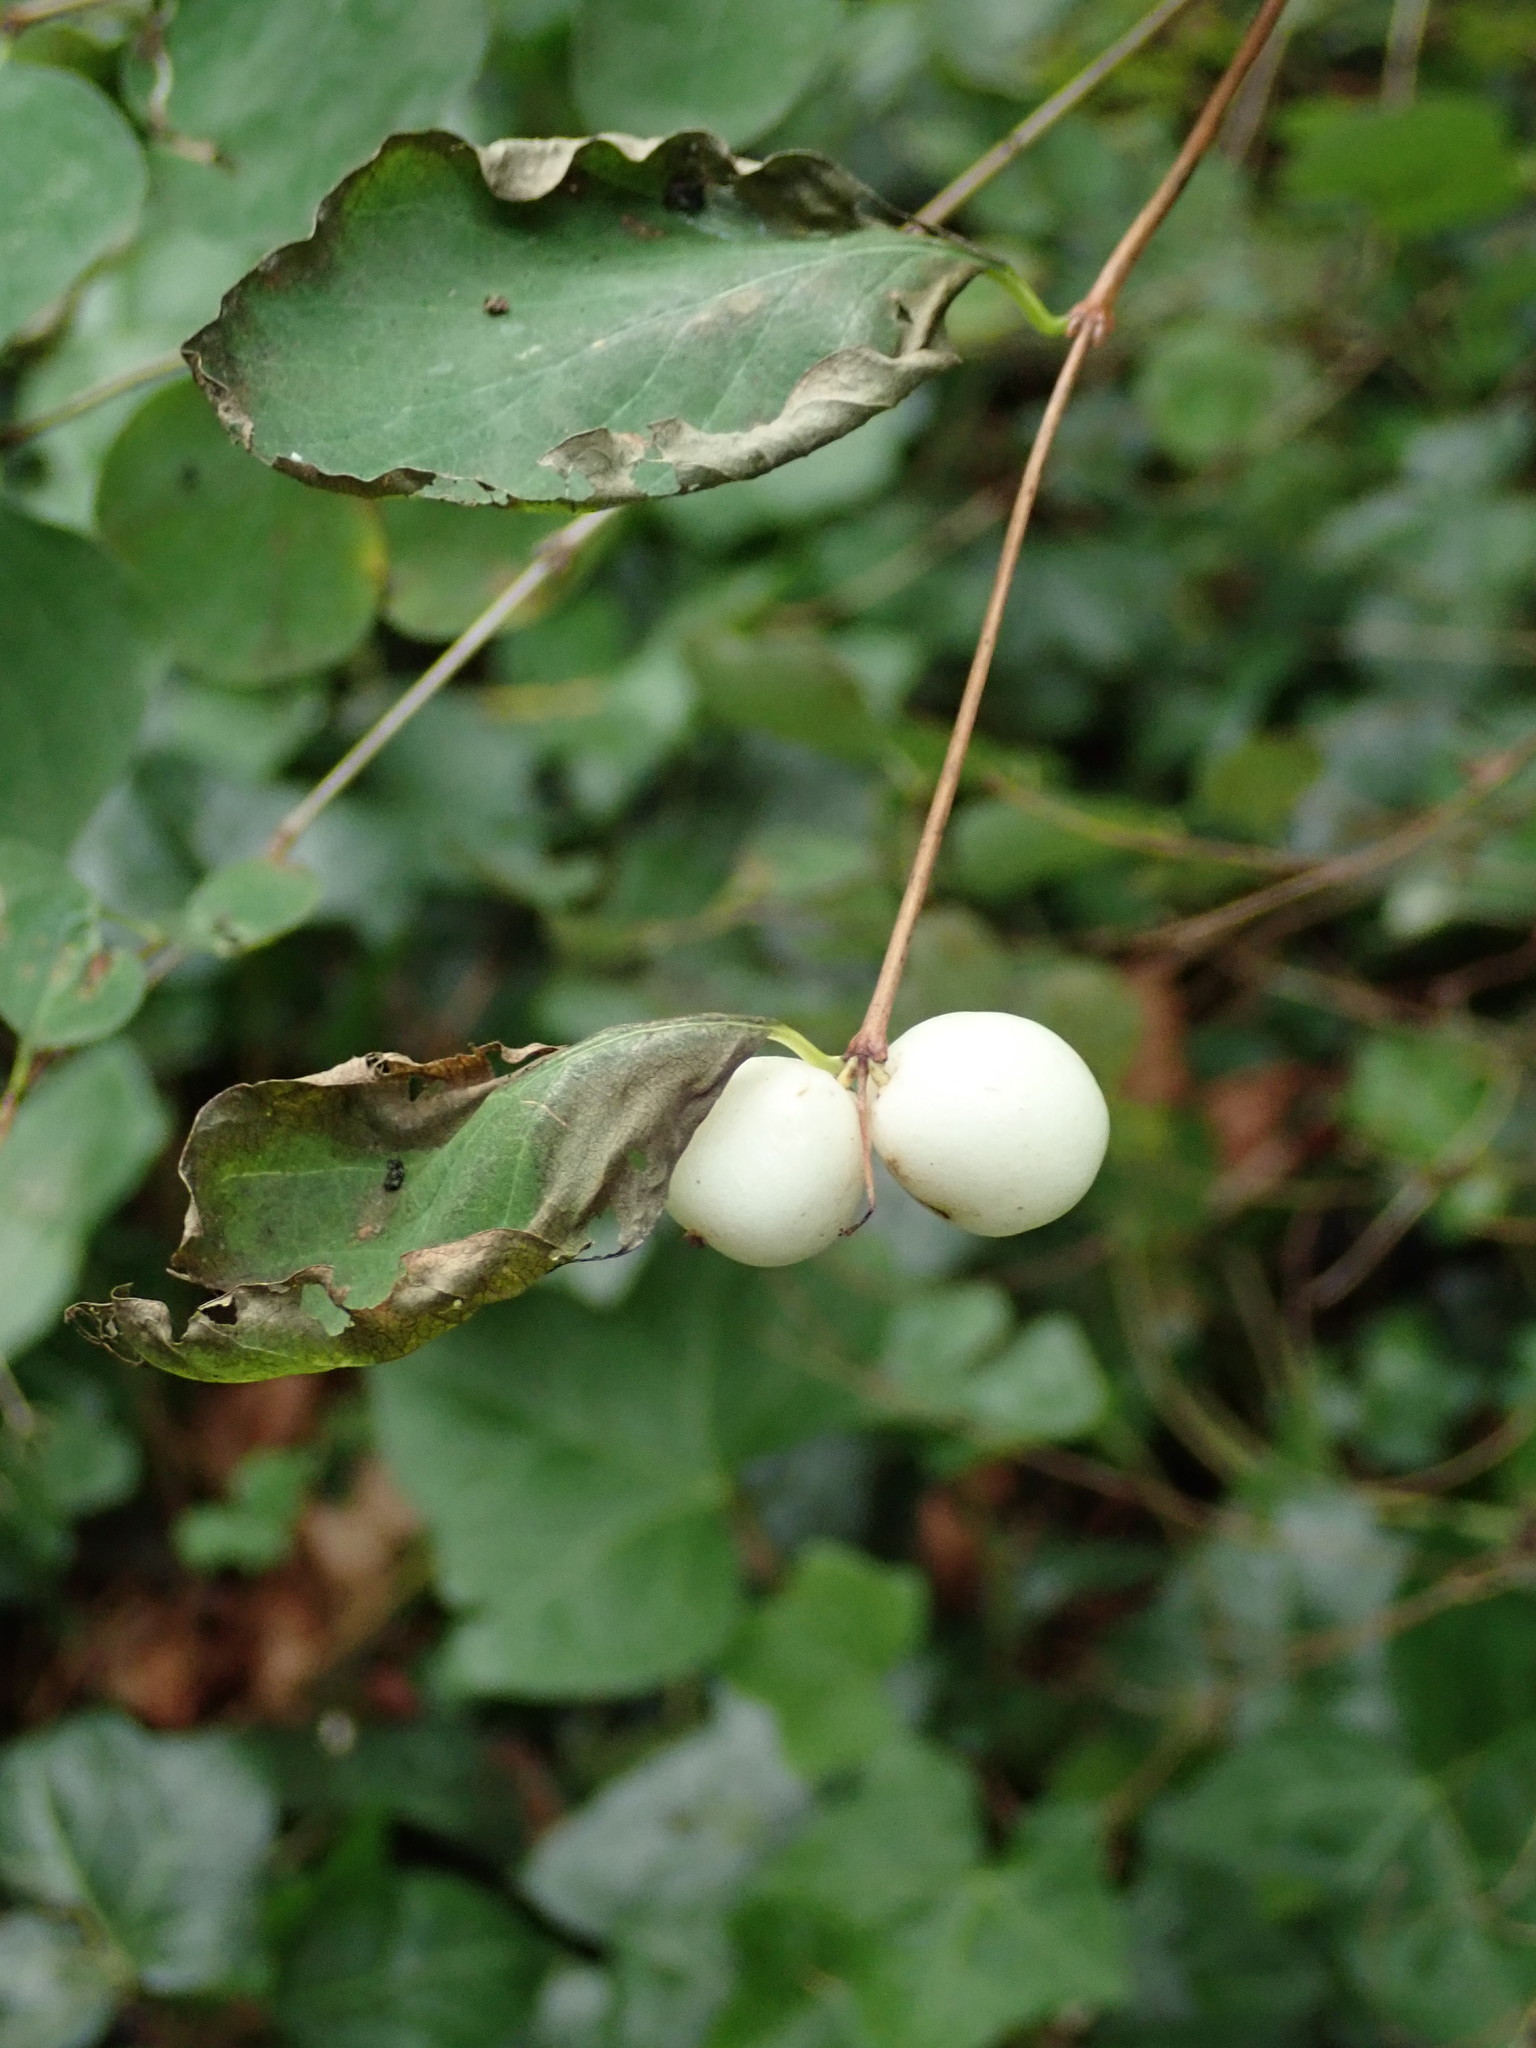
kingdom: Plantae
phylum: Tracheophyta
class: Magnoliopsida
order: Dipsacales
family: Caprifoliaceae
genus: Symphoricarpos
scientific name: Symphoricarpos albus
